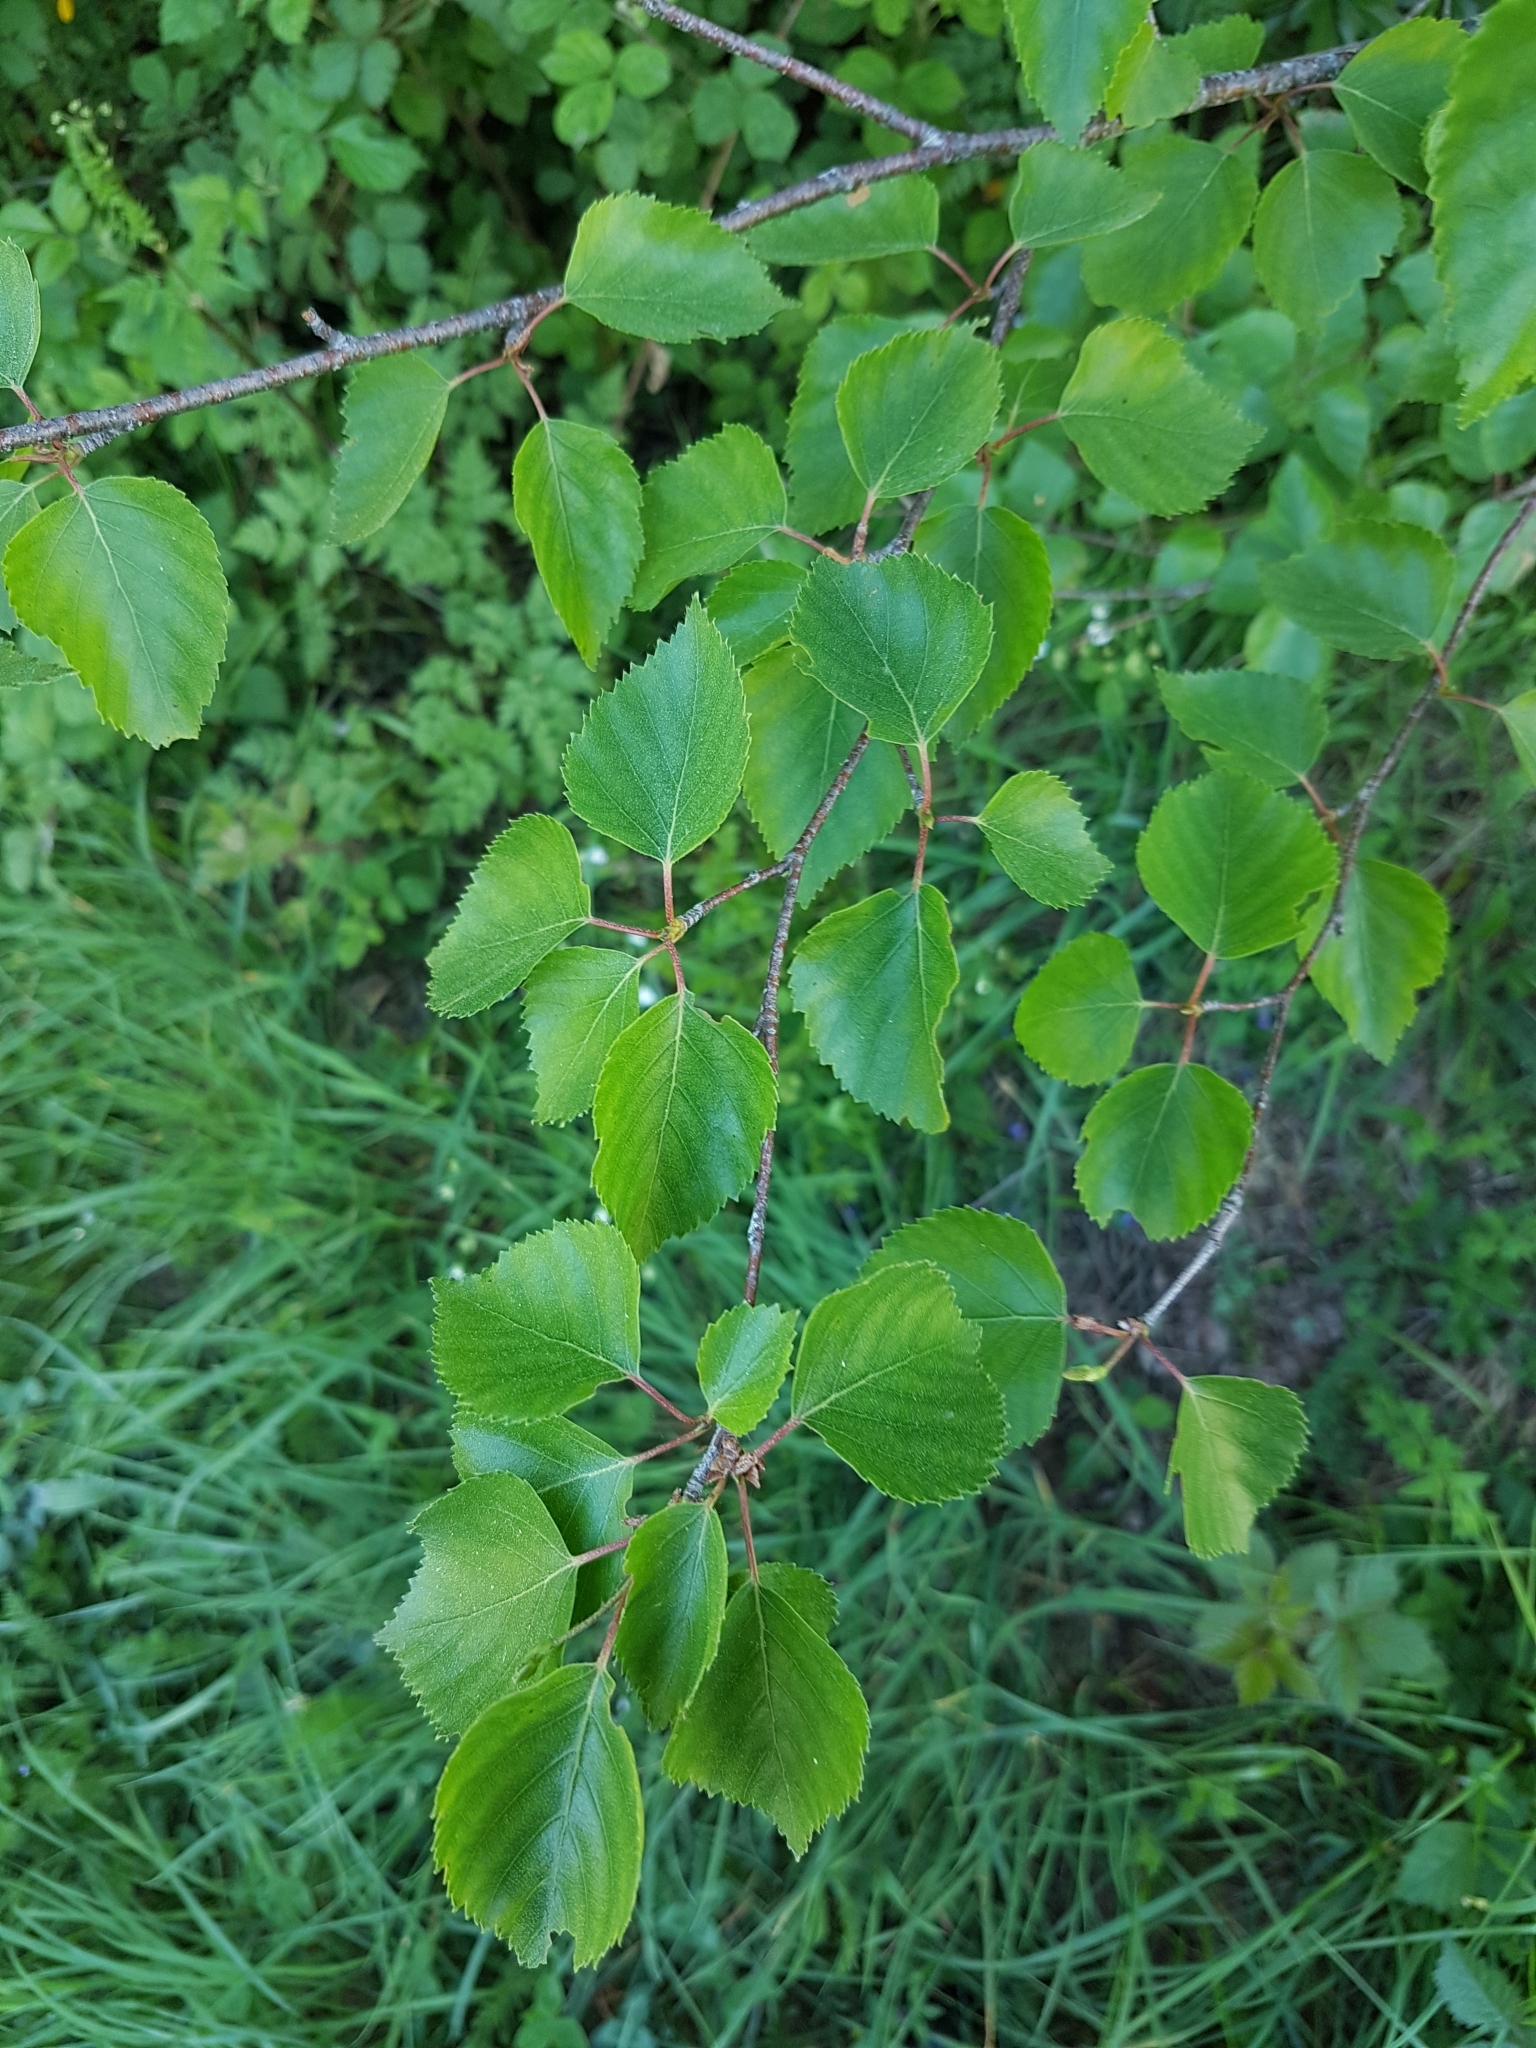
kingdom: Plantae
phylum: Tracheophyta
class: Magnoliopsida
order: Fagales
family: Betulaceae
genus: Betula
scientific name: Betula pubescens
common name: Downy birch
